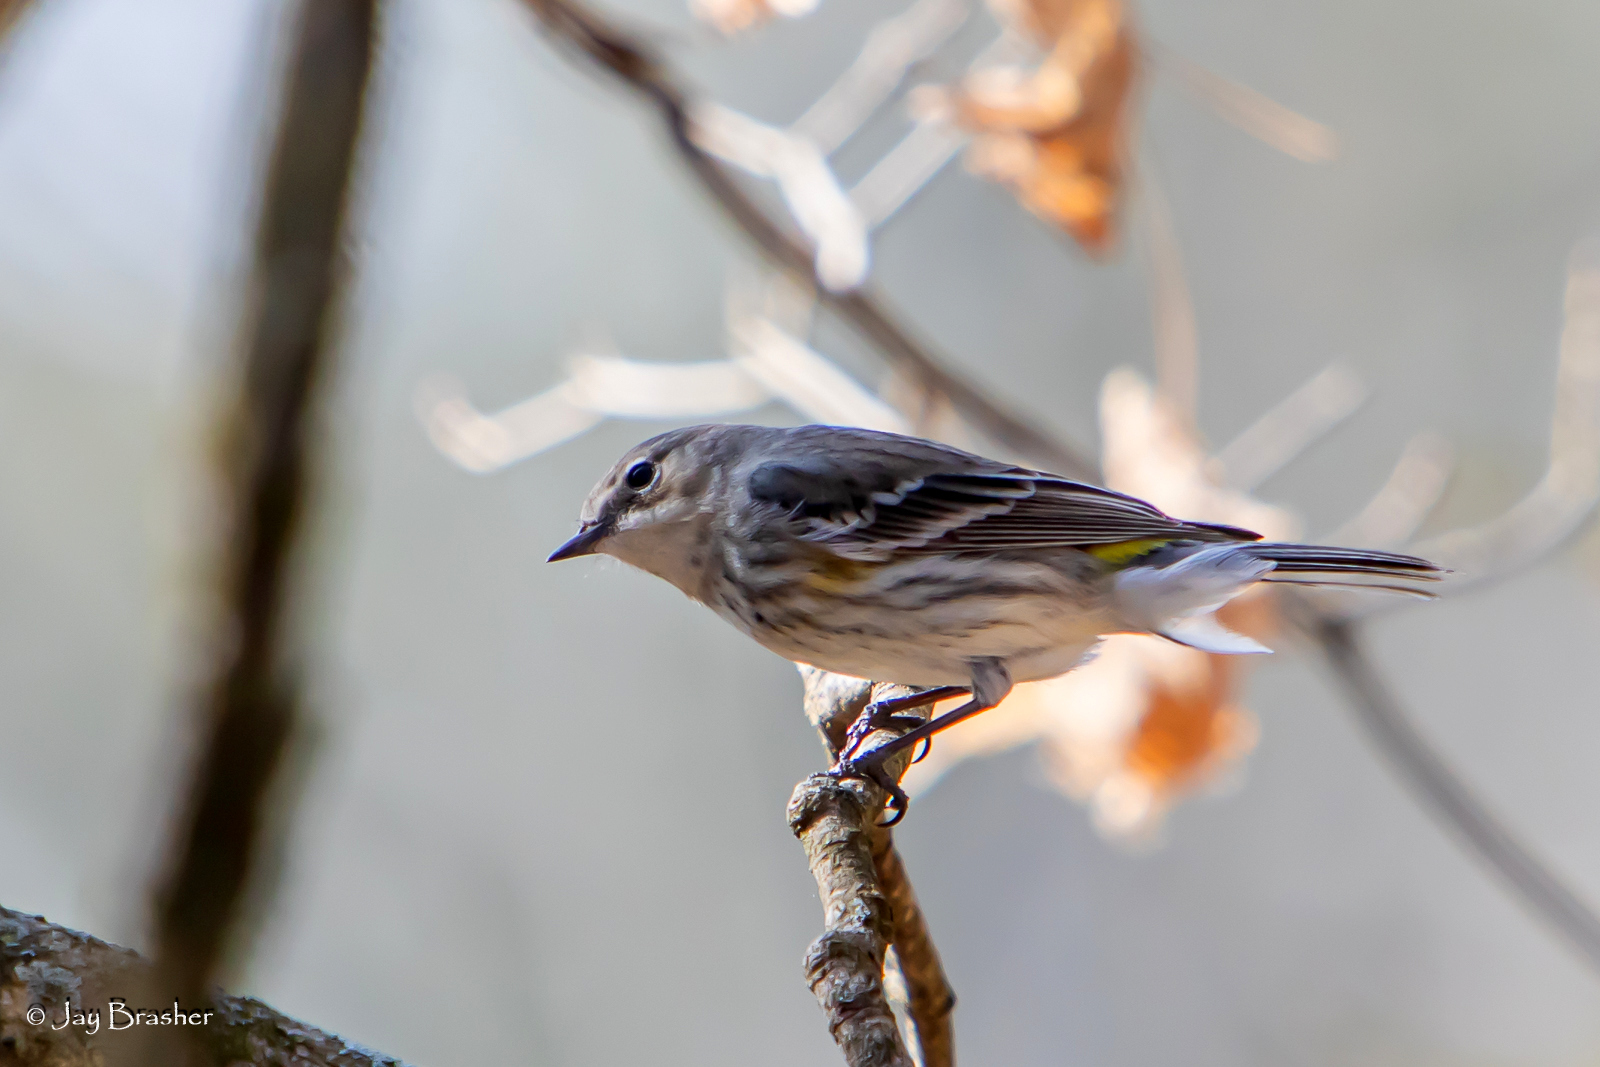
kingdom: Animalia
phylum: Chordata
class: Aves
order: Passeriformes
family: Parulidae
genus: Setophaga
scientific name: Setophaga coronata
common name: Myrtle warbler
